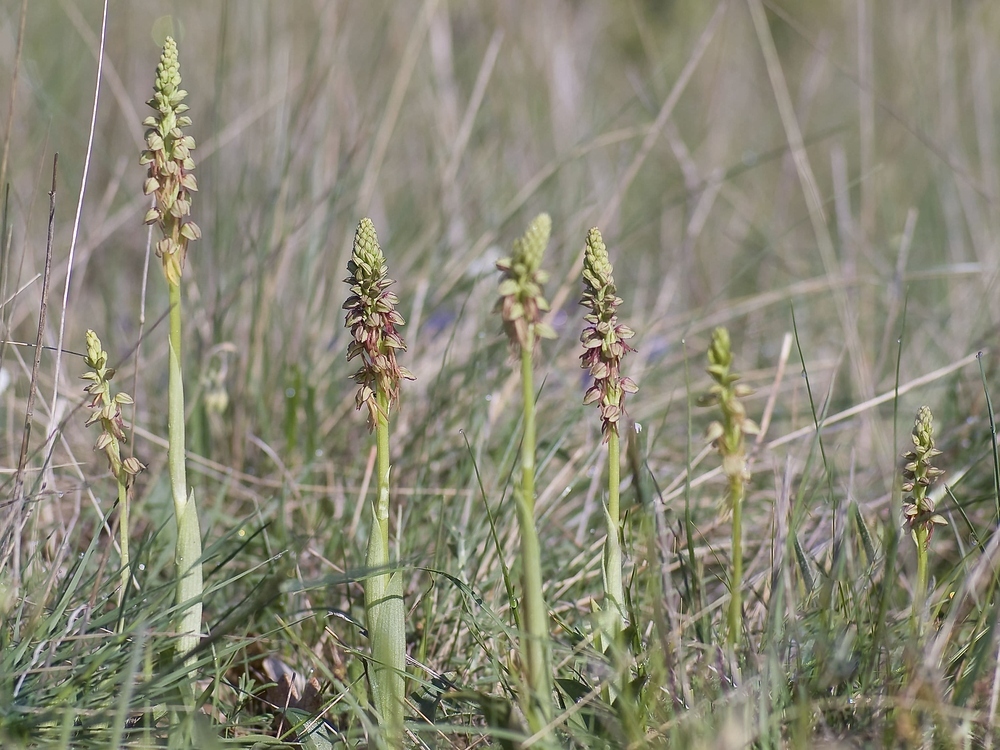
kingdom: Plantae
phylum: Tracheophyta
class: Liliopsida
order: Asparagales
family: Orchidaceae
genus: Orchis
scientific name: Orchis anthropophora
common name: Man orchid
